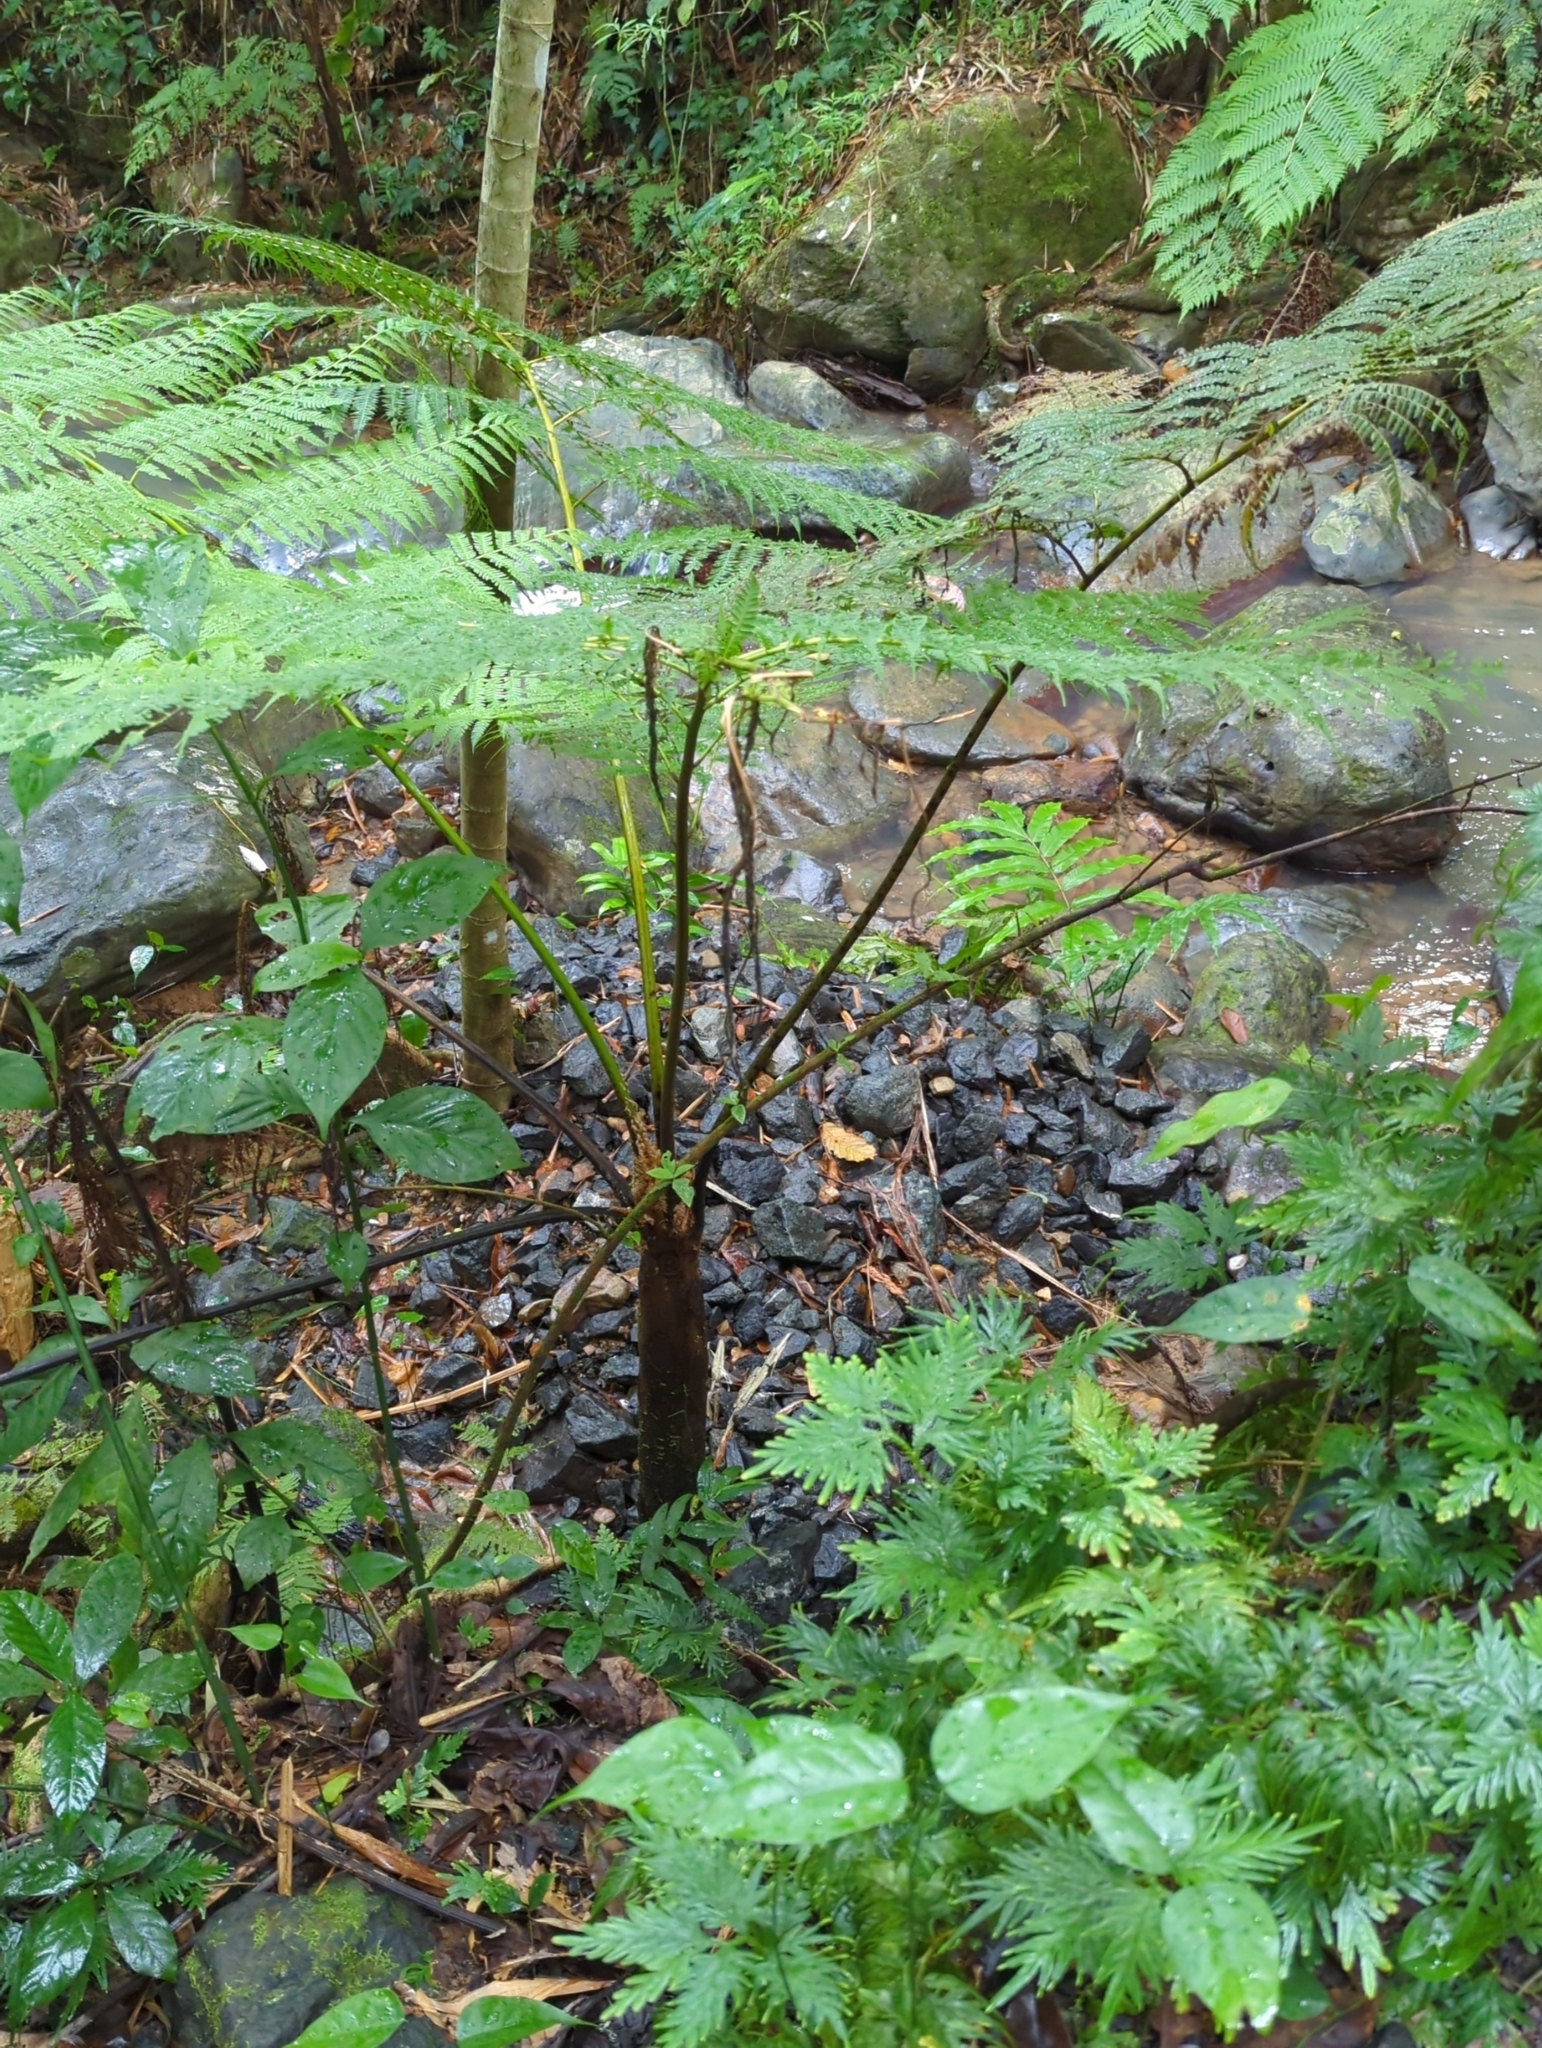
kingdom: Plantae
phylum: Tracheophyta
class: Polypodiopsida
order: Cyatheales
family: Cyatheaceae
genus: Cyathea
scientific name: Cyathea arborea
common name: West indian treefern
